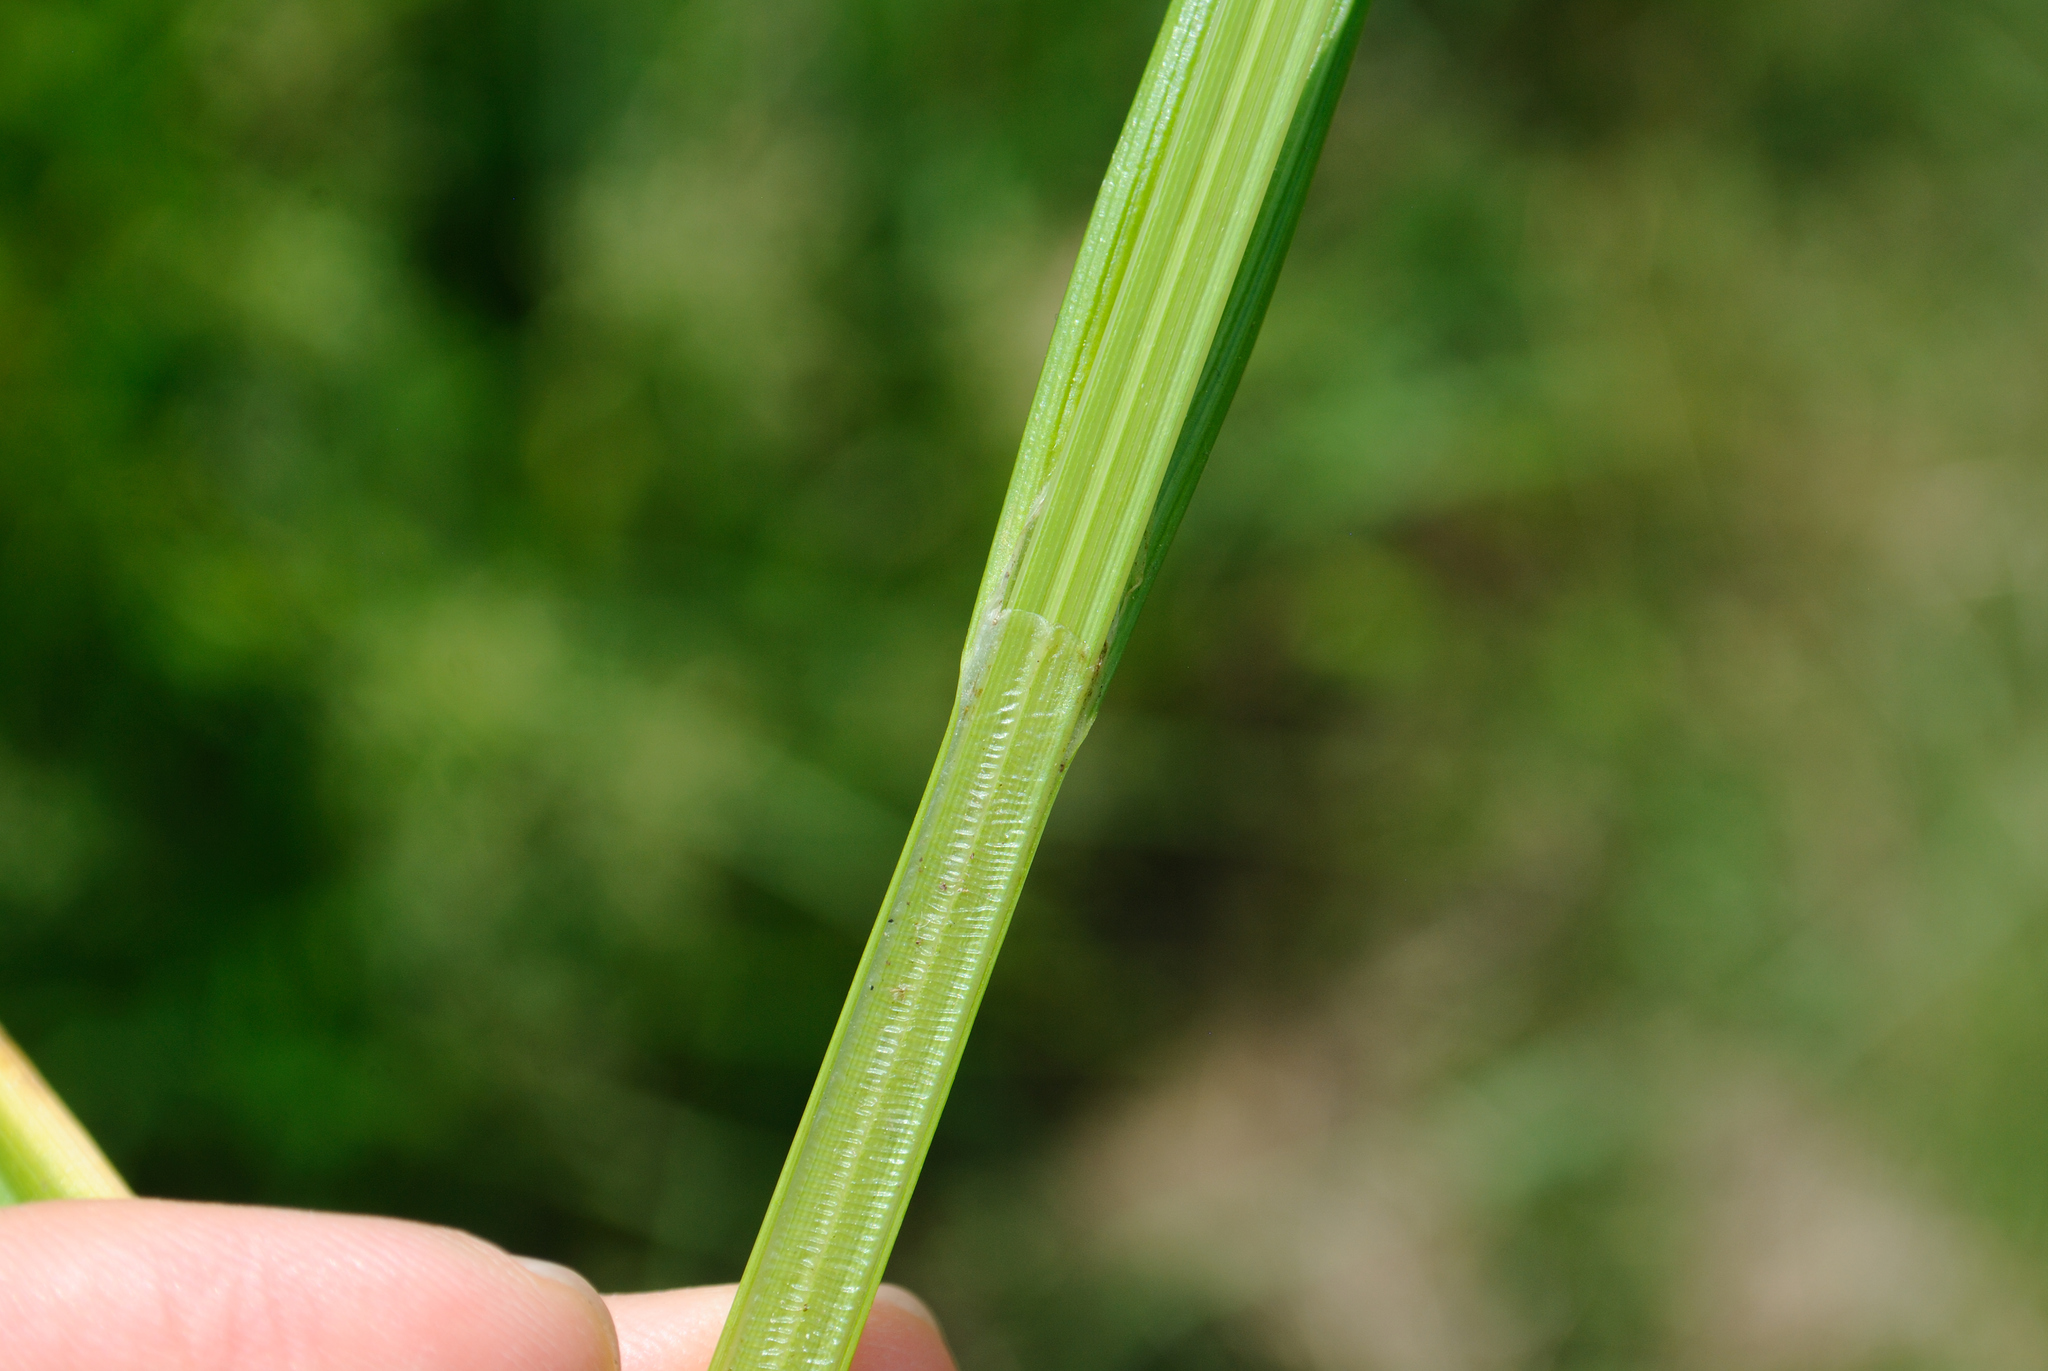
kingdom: Plantae
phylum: Tracheophyta
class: Liliopsida
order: Poales
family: Cyperaceae
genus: Carex
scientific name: Carex stipata
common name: Awl-fruited sedge
